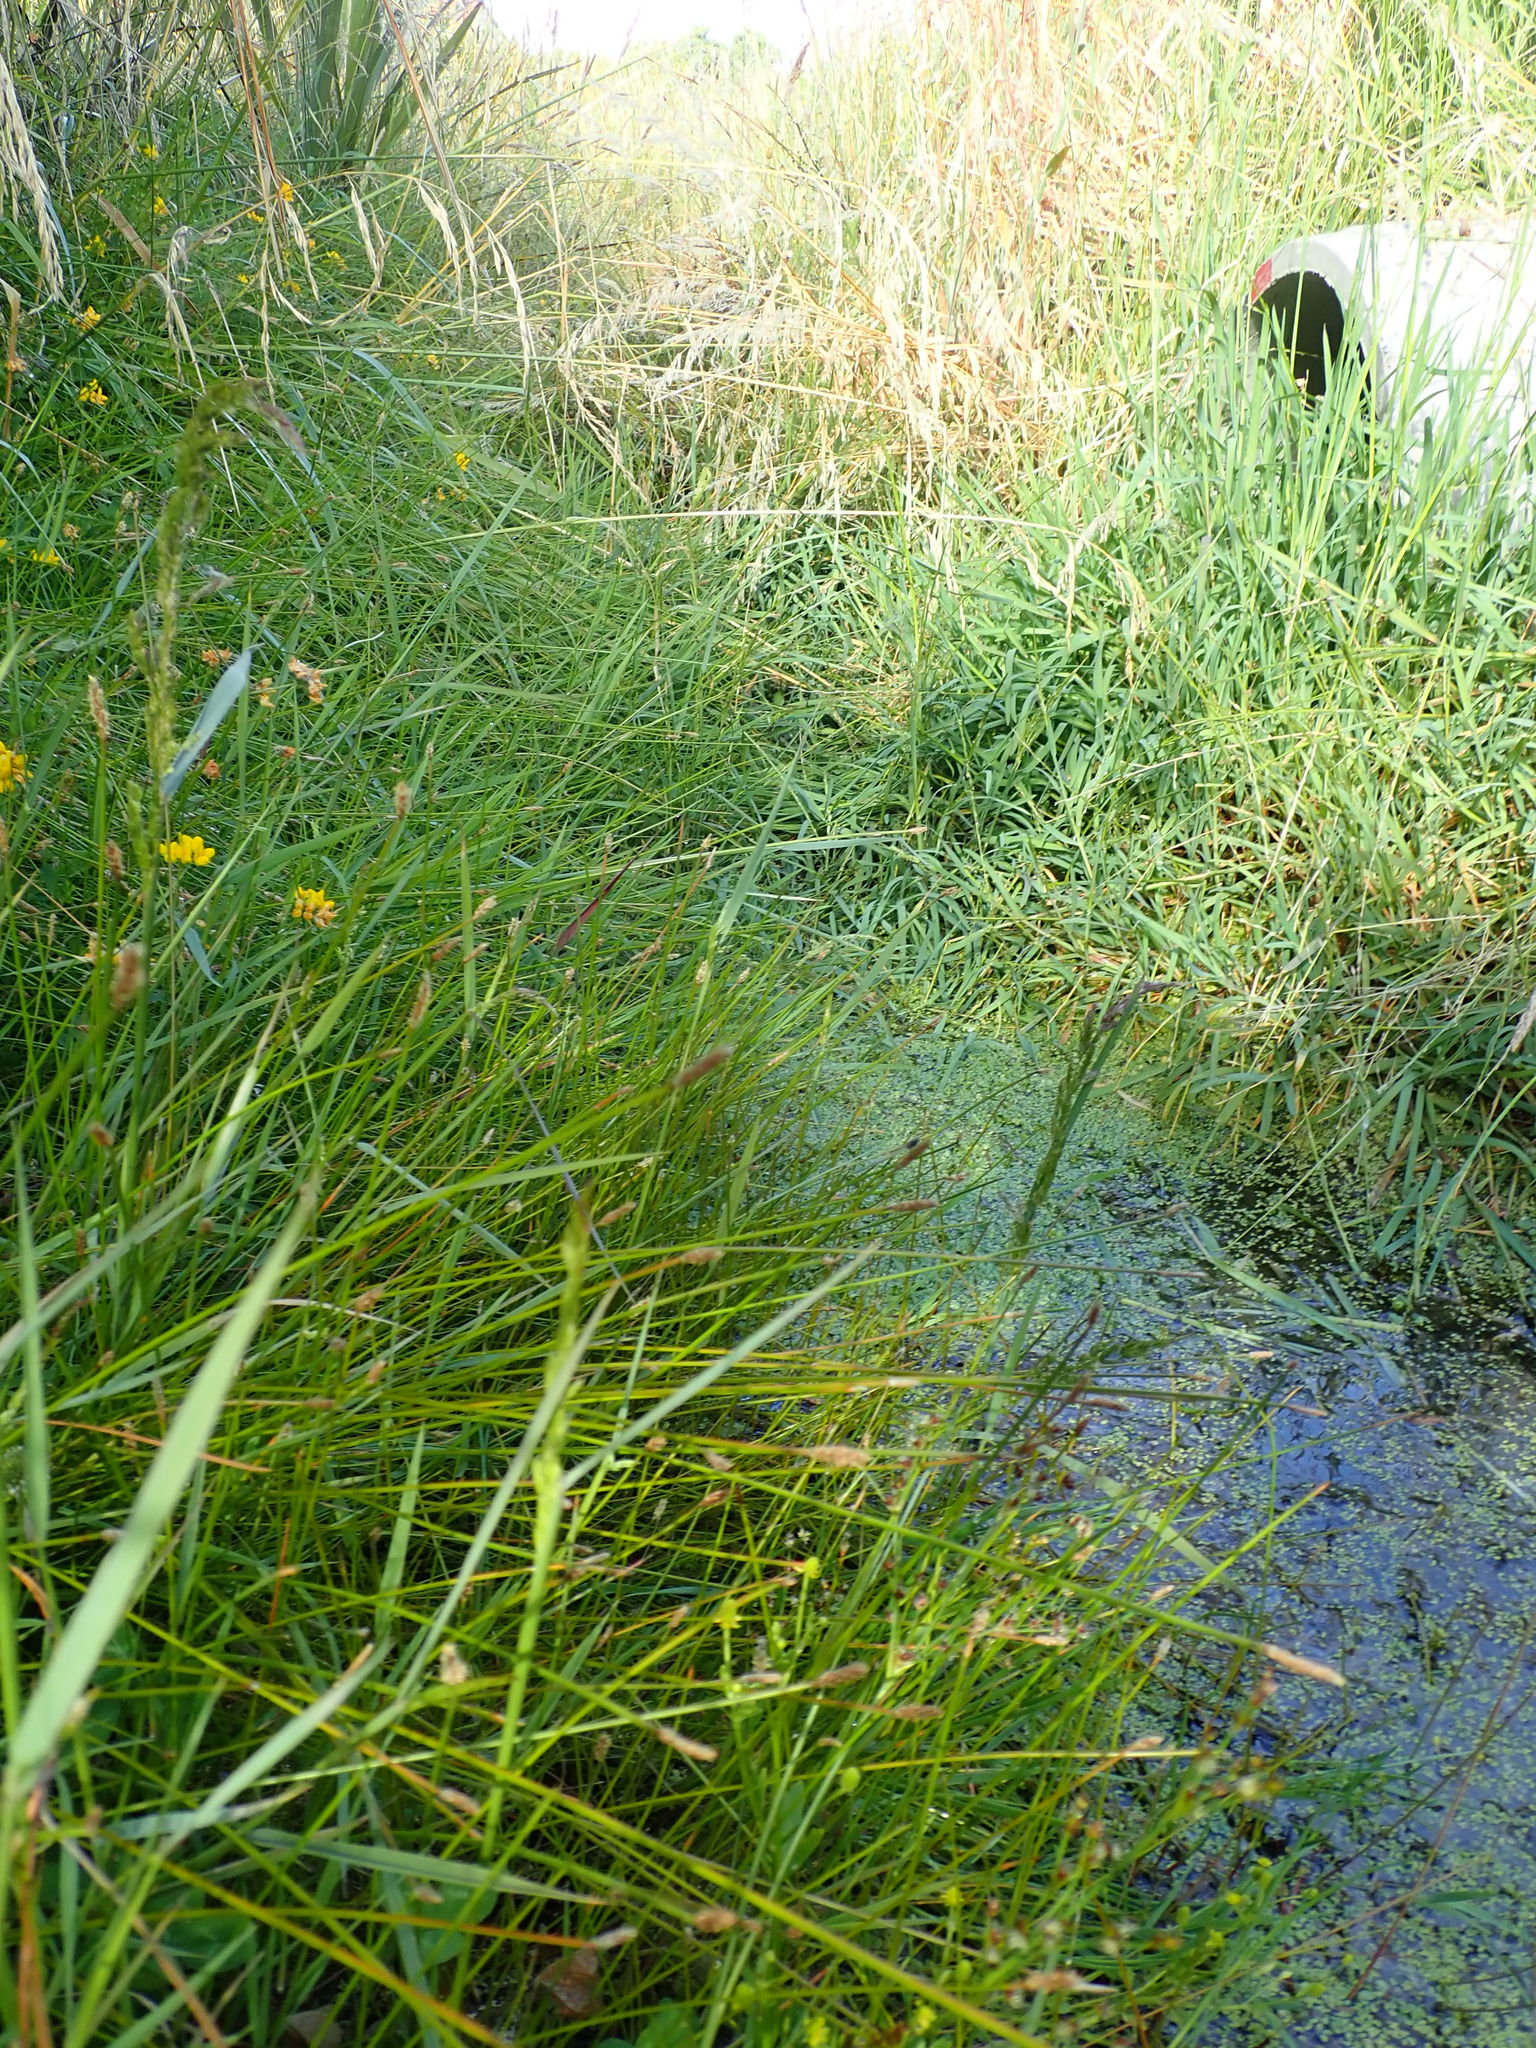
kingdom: Plantae
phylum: Tracheophyta
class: Liliopsida
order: Poales
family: Cyperaceae
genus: Eleocharis
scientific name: Eleocharis acuta
